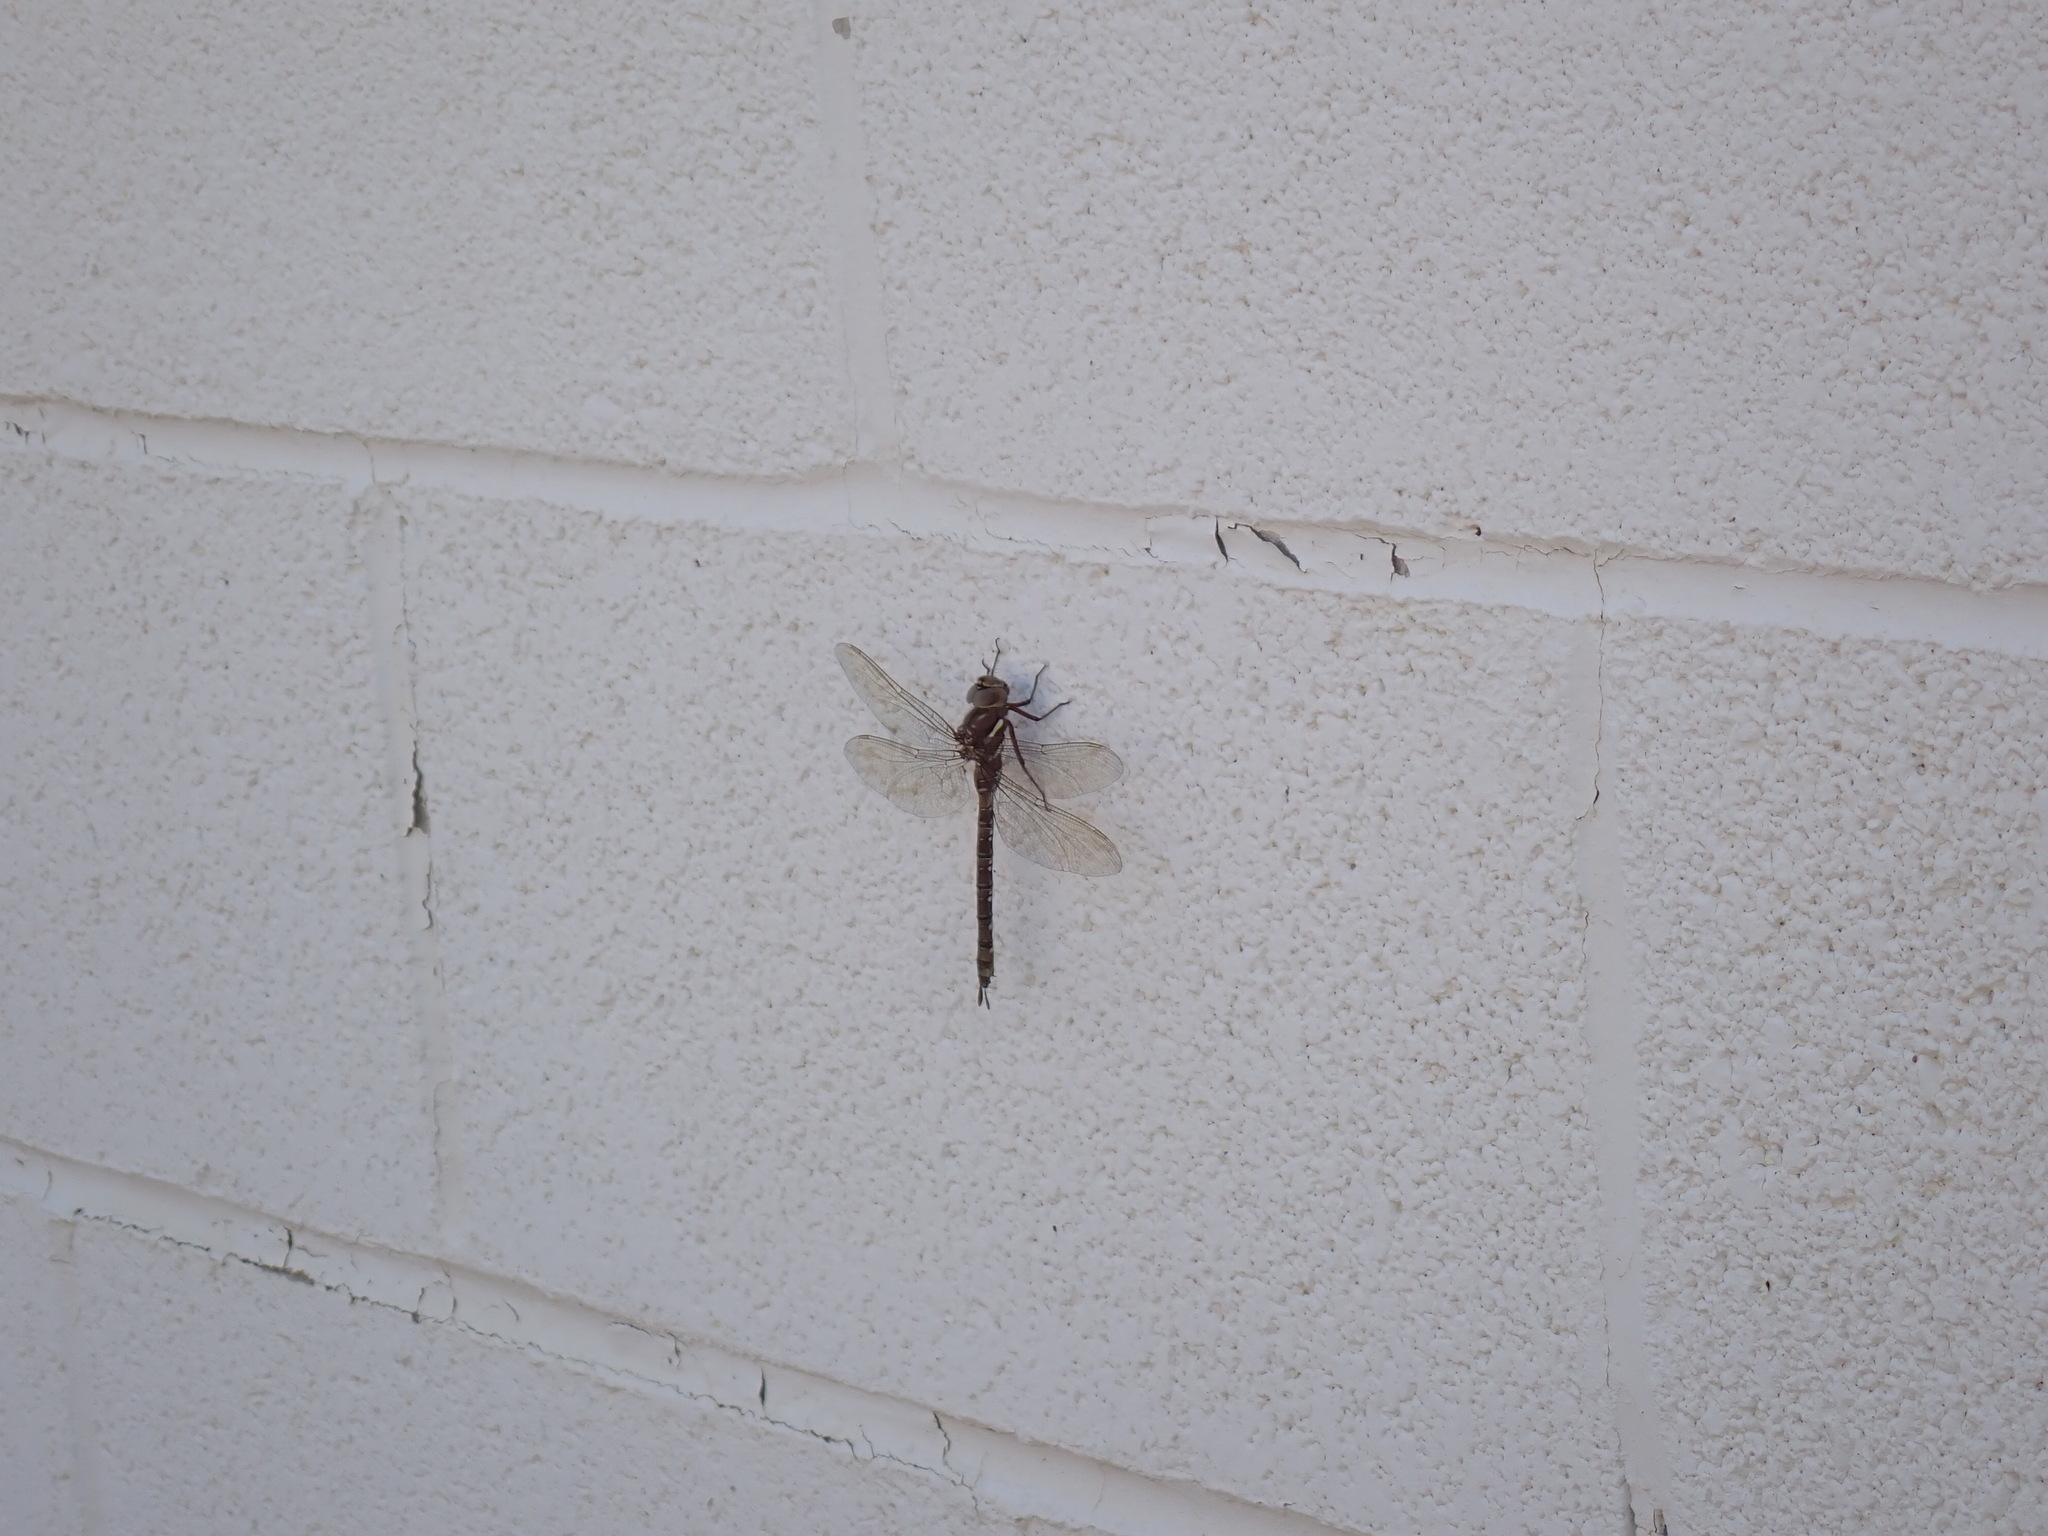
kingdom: Animalia
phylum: Arthropoda
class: Insecta
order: Odonata
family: Aeshnidae
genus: Aeshna
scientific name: Aeshna umbrosa
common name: Shadow darner
